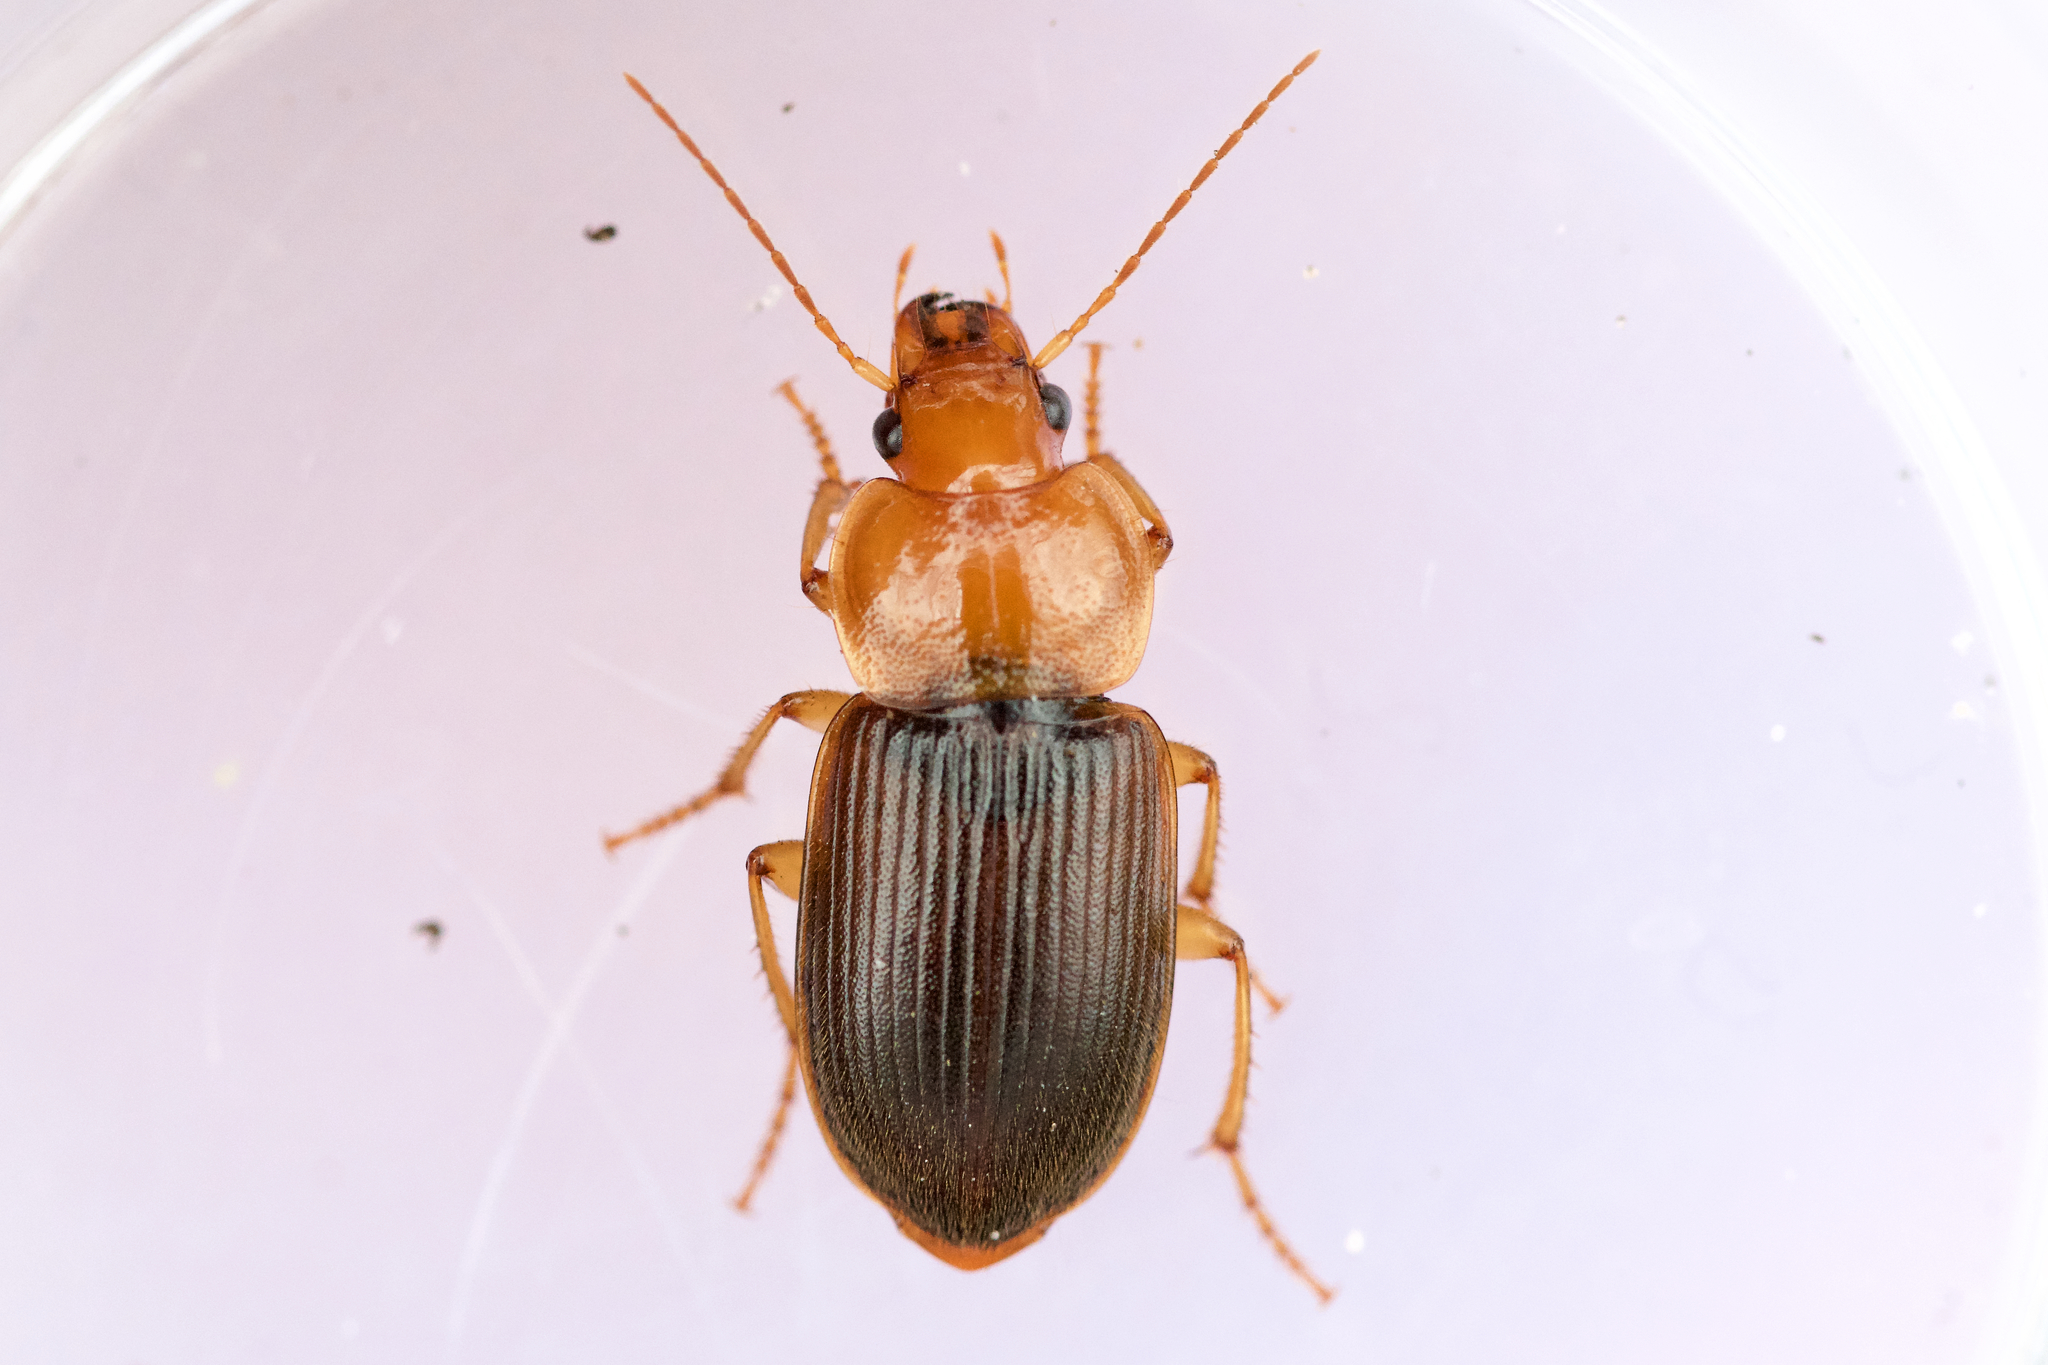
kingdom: Animalia
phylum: Arthropoda
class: Insecta
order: Coleoptera
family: Carabidae
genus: Amphasia
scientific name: Amphasia interstitialis
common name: Red-headed ground beetle
